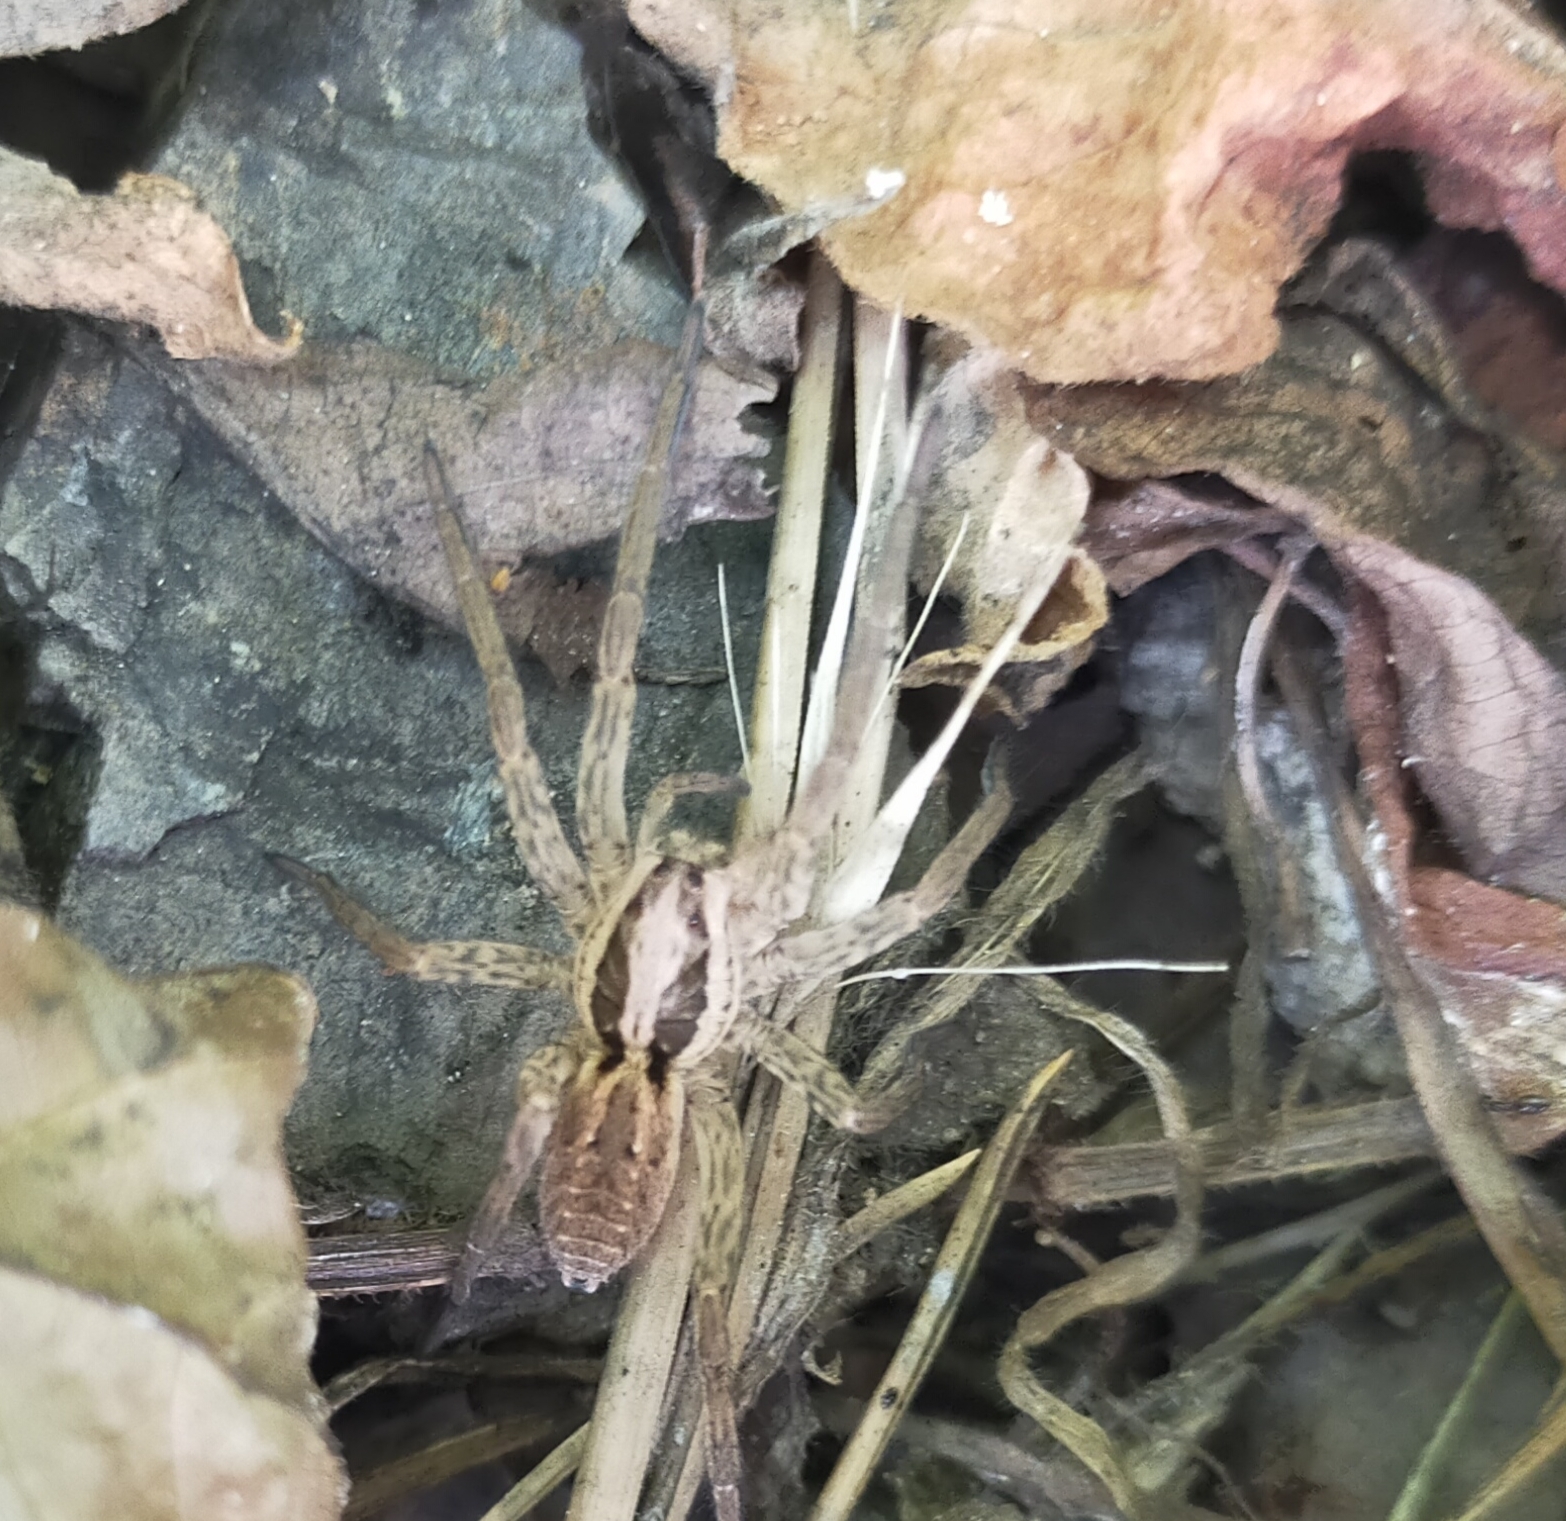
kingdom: Animalia
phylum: Arthropoda
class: Arachnida
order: Araneae
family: Lycosidae
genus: Alopecosa
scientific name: Alopecosa
